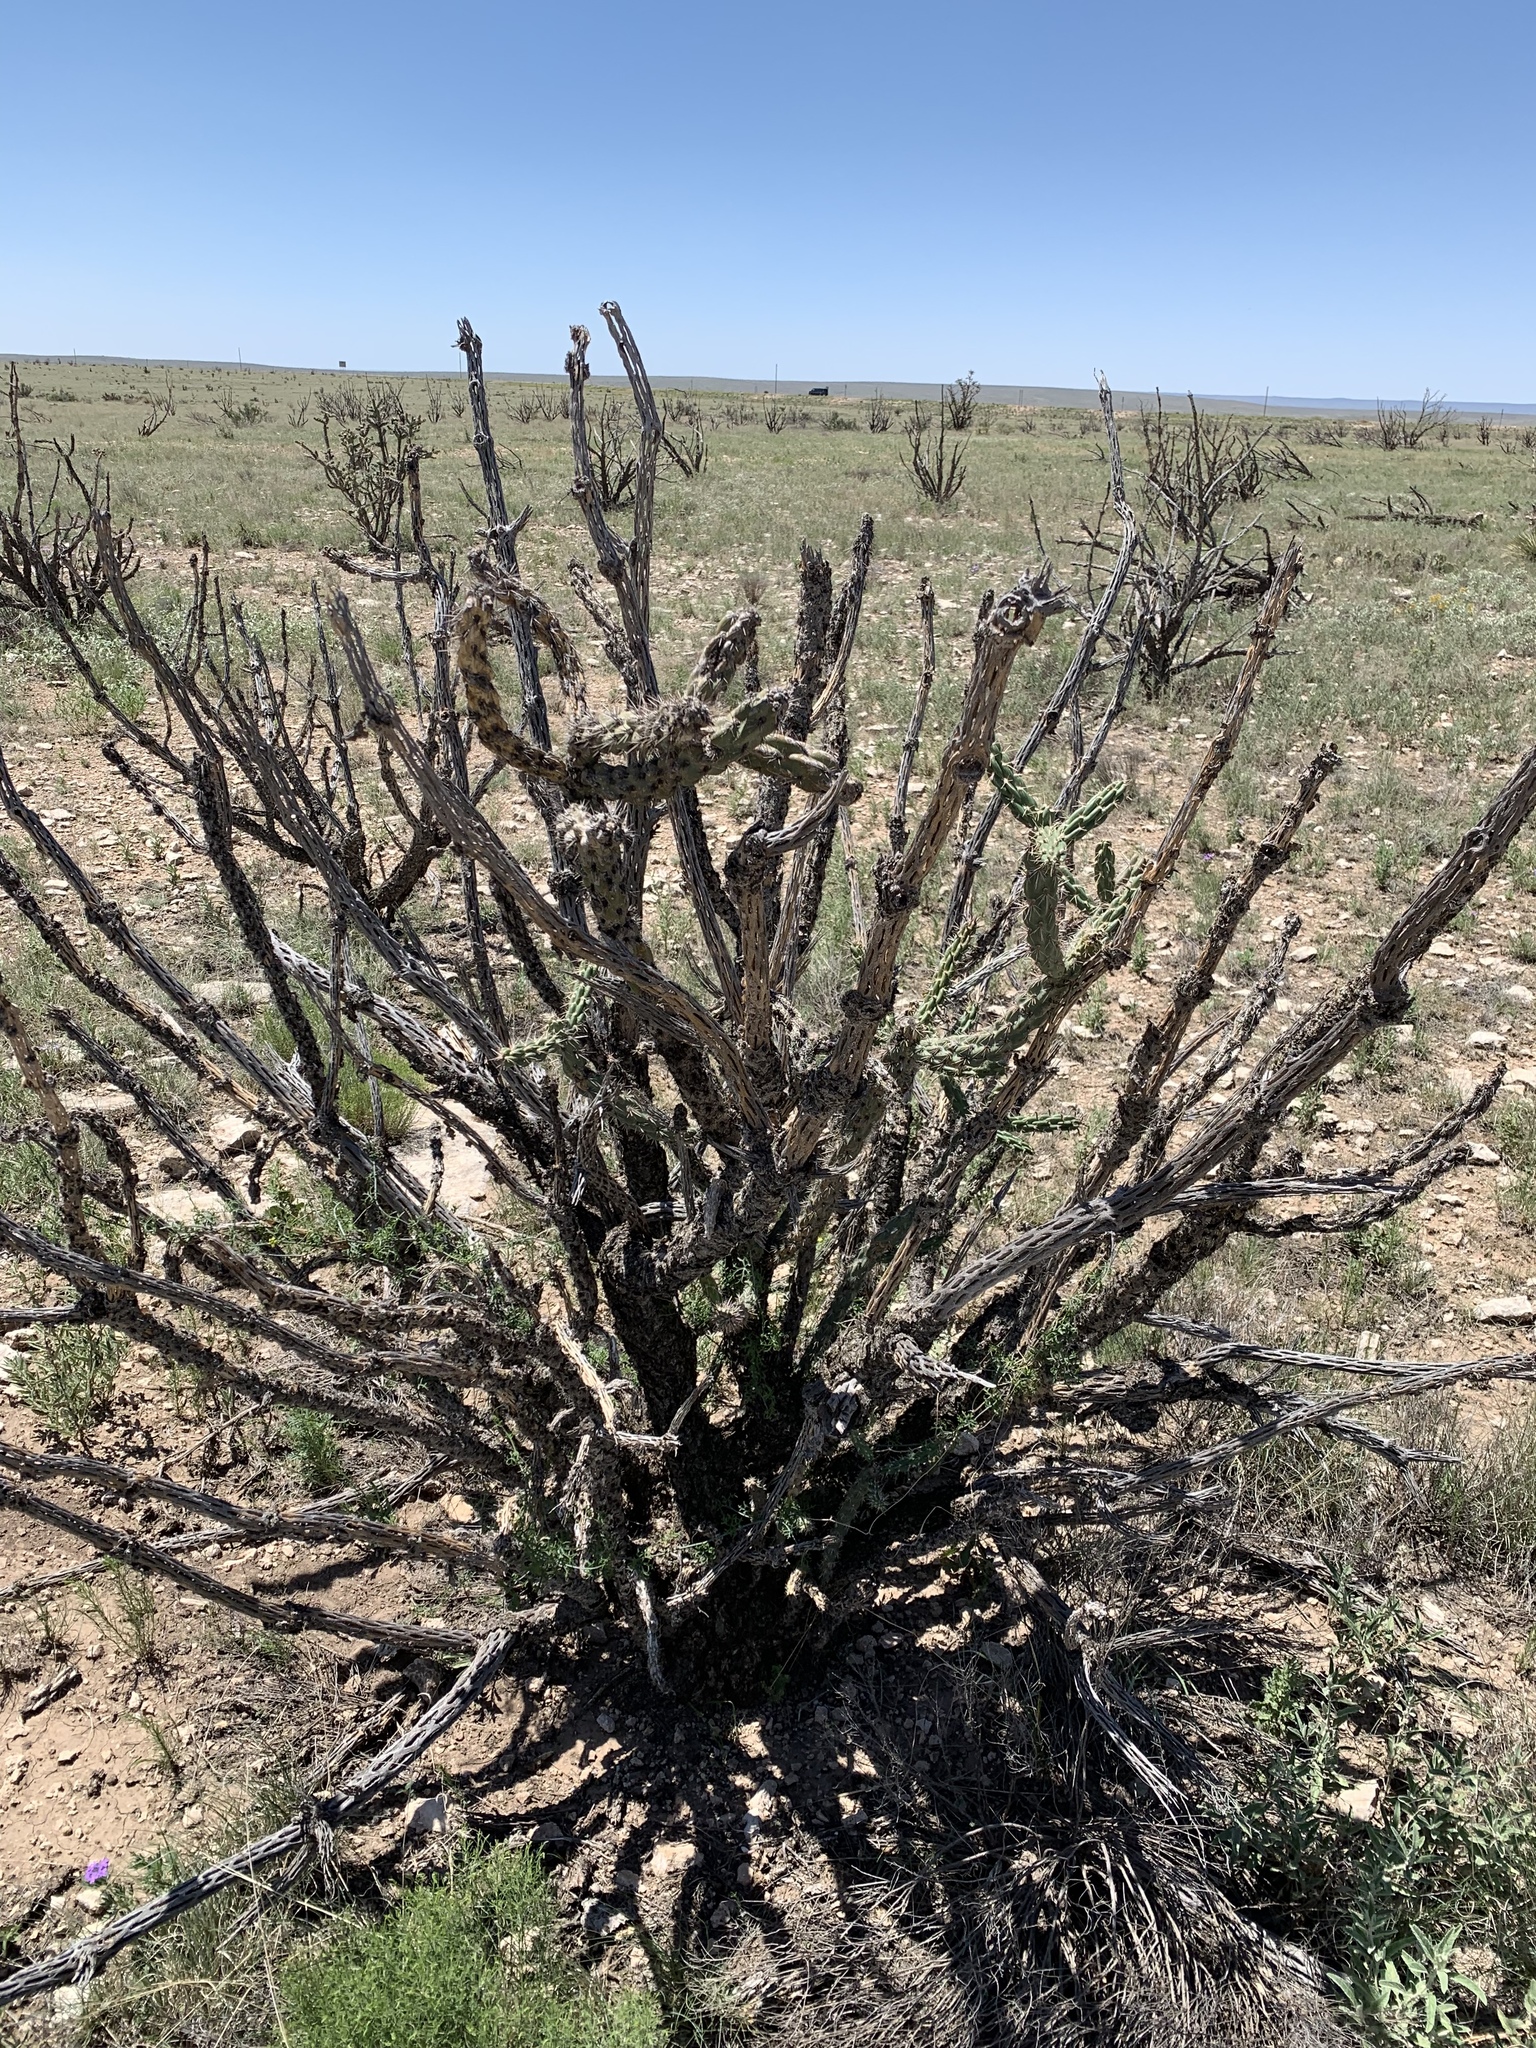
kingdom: Plantae
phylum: Tracheophyta
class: Magnoliopsida
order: Caryophyllales
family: Cactaceae
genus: Cylindropuntia
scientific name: Cylindropuntia imbricata
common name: Candelabrum cactus
